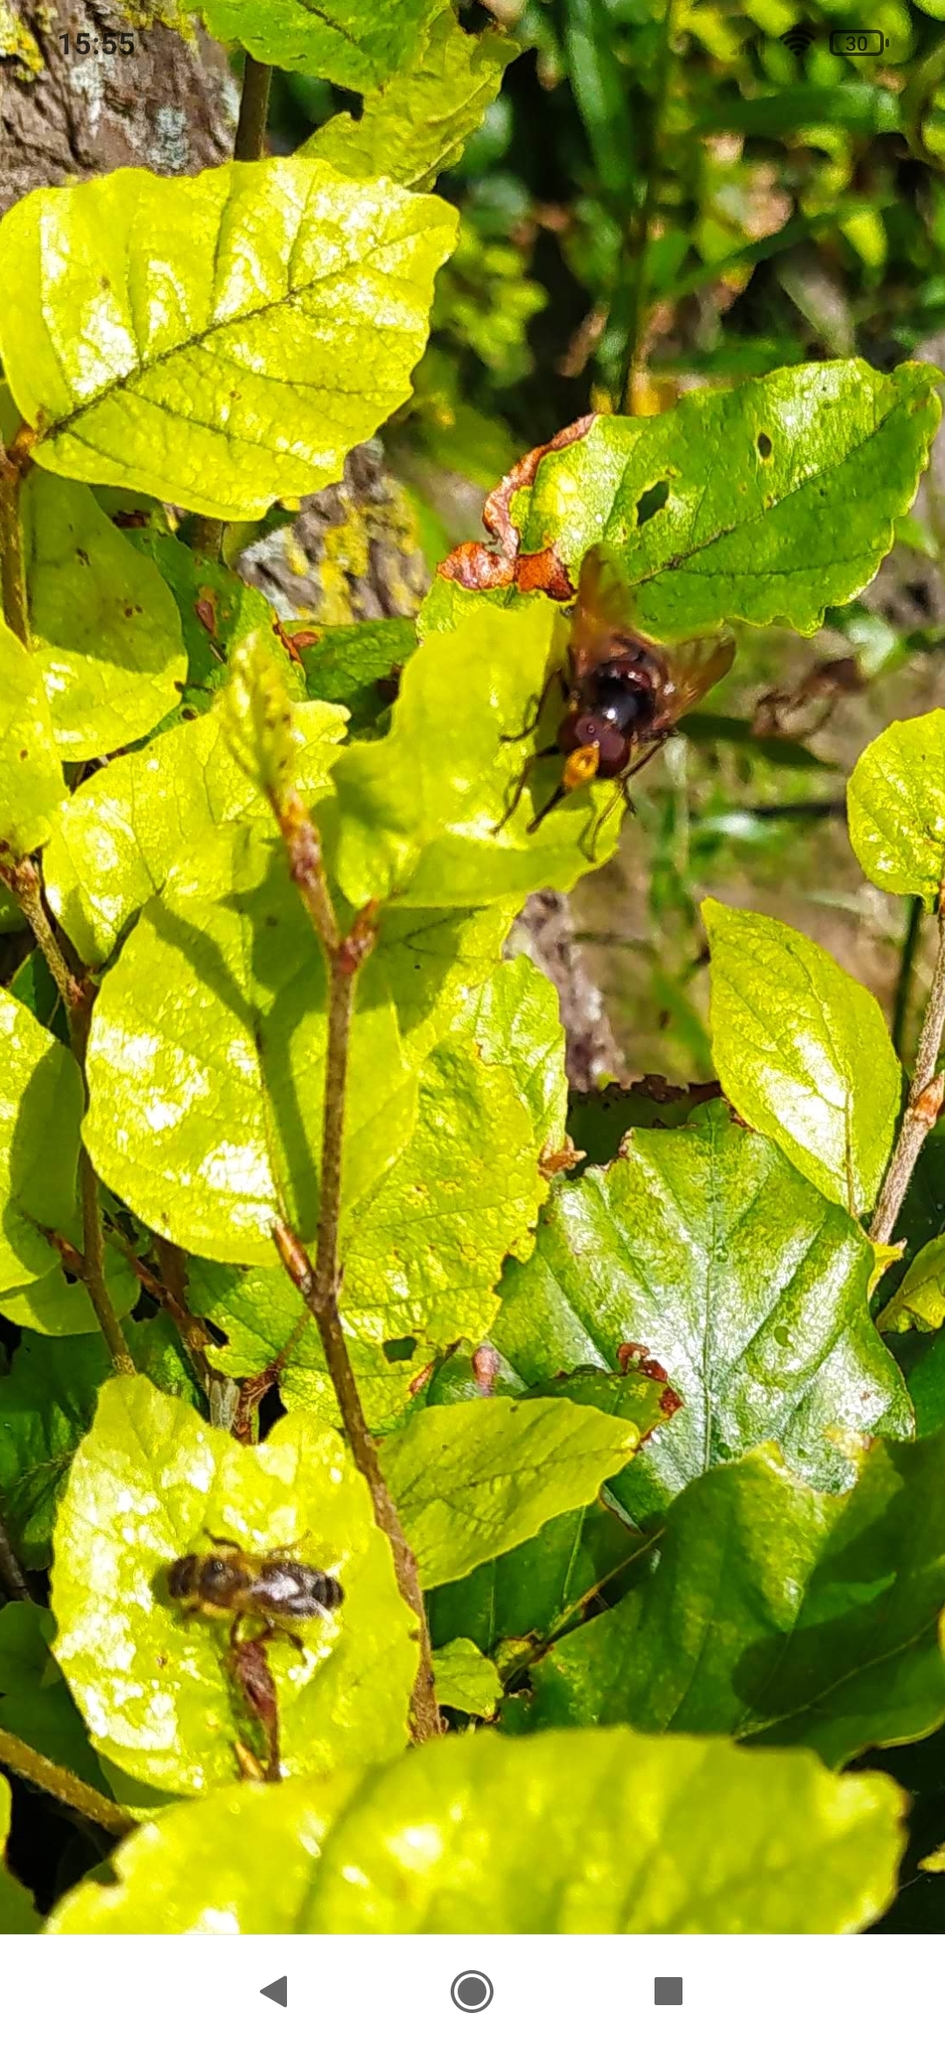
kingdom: Animalia
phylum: Arthropoda
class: Insecta
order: Diptera
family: Syrphidae
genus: Volucella
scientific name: Volucella zonaria
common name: Hornet hoverfly
